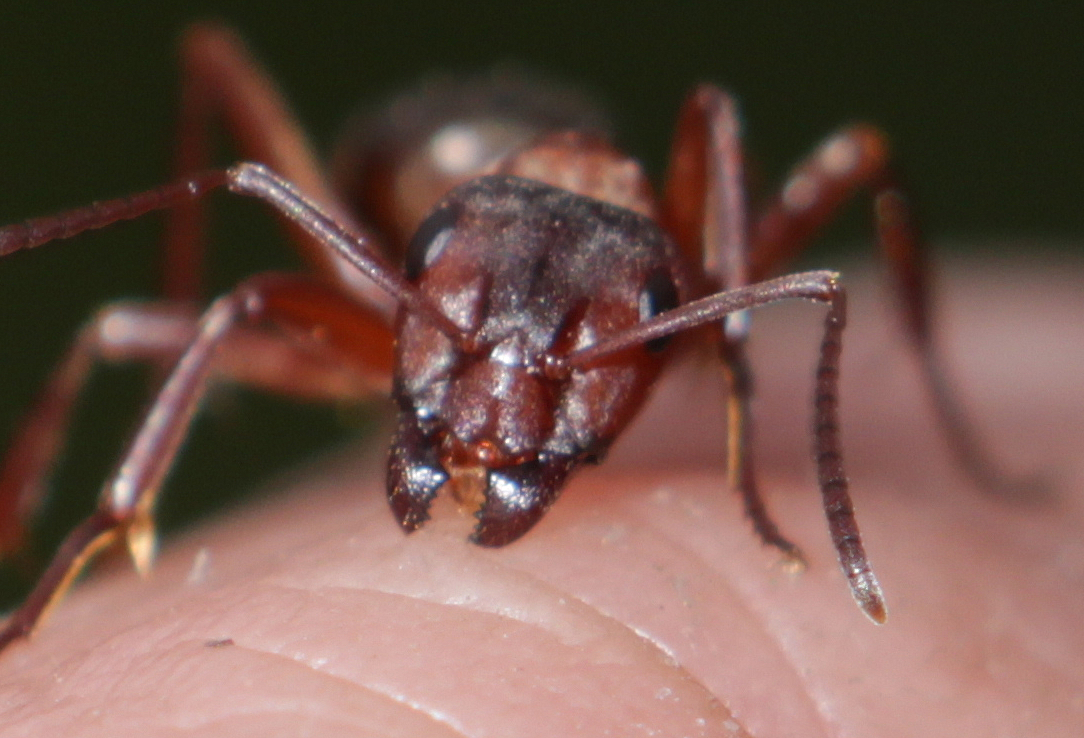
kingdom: Animalia
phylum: Arthropoda
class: Insecta
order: Hymenoptera
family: Formicidae
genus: Formica
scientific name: Formica sanguinea
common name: Blood-red ant
